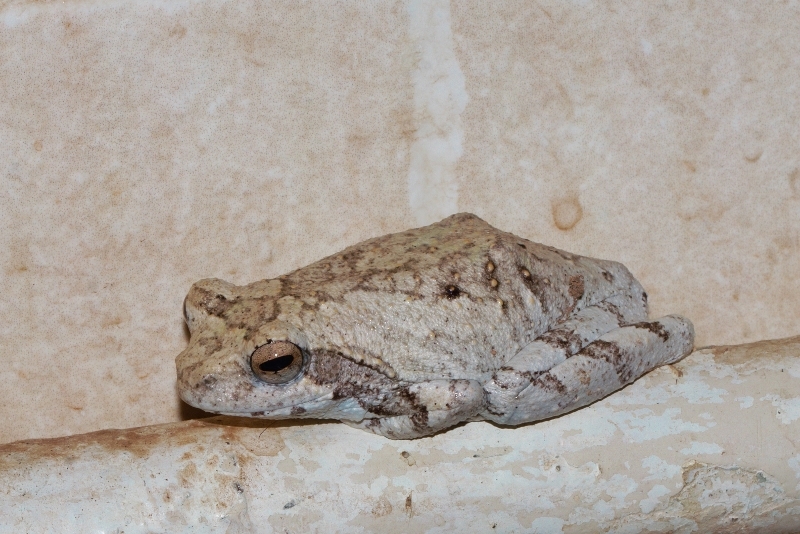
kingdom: Animalia
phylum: Chordata
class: Amphibia
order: Anura
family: Rhacophoridae
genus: Chiromantis
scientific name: Chiromantis xerampelina
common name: African gray treefrog
